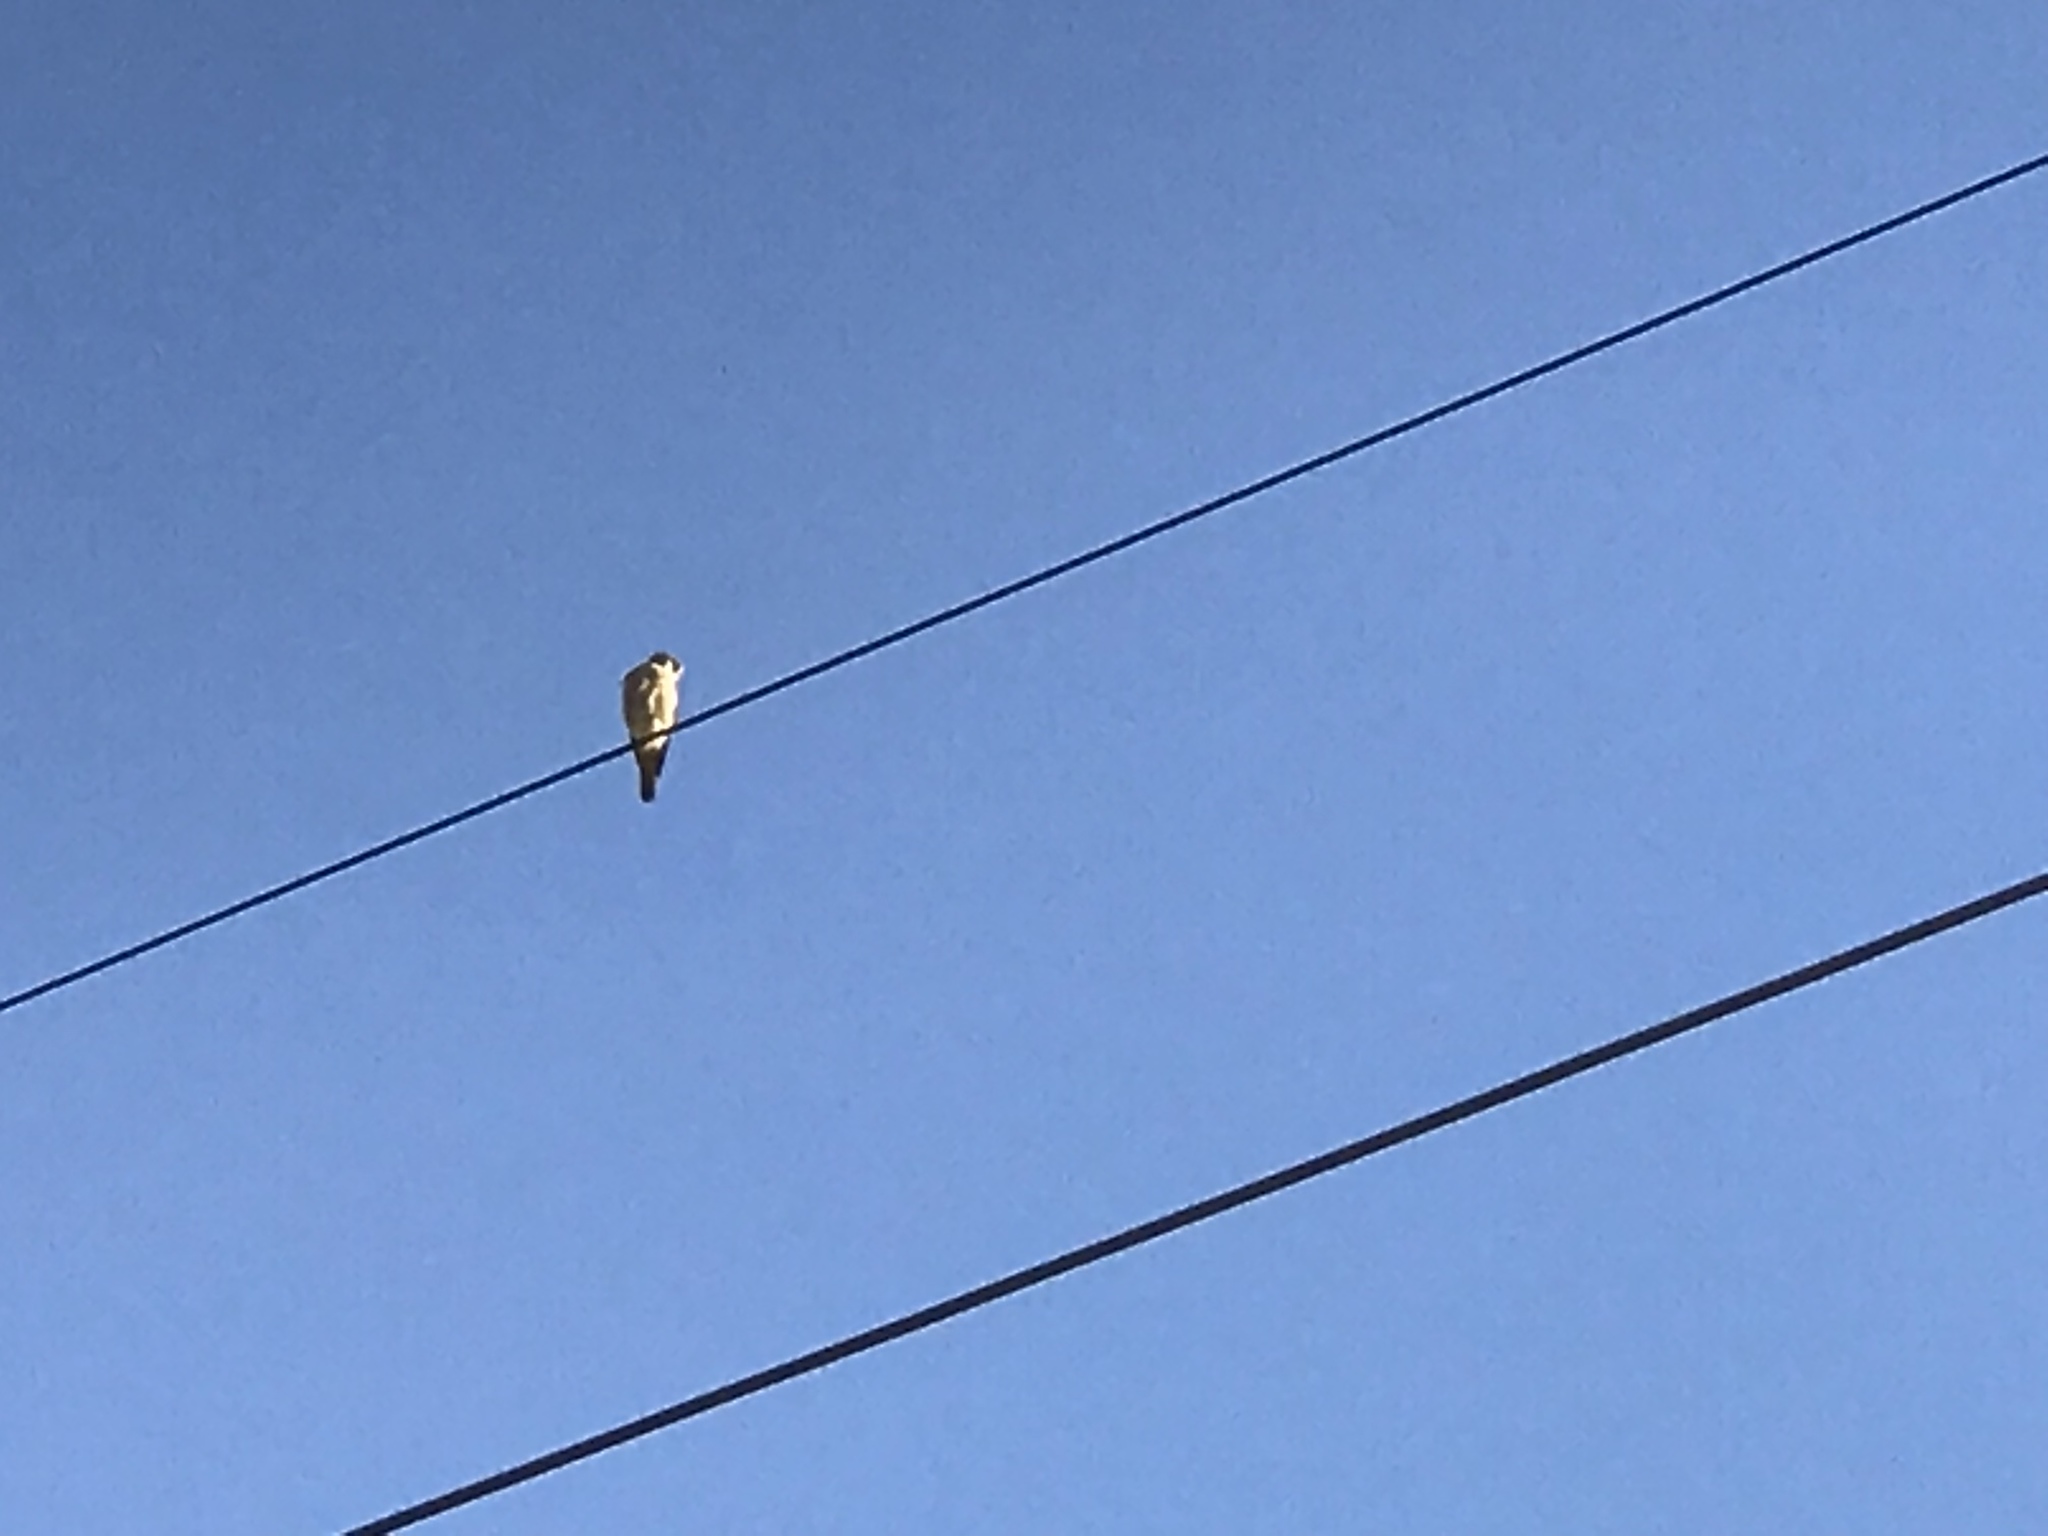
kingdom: Animalia
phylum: Chordata
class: Aves
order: Falconiformes
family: Falconidae
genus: Falco
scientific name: Falco sparverius
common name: American kestrel
